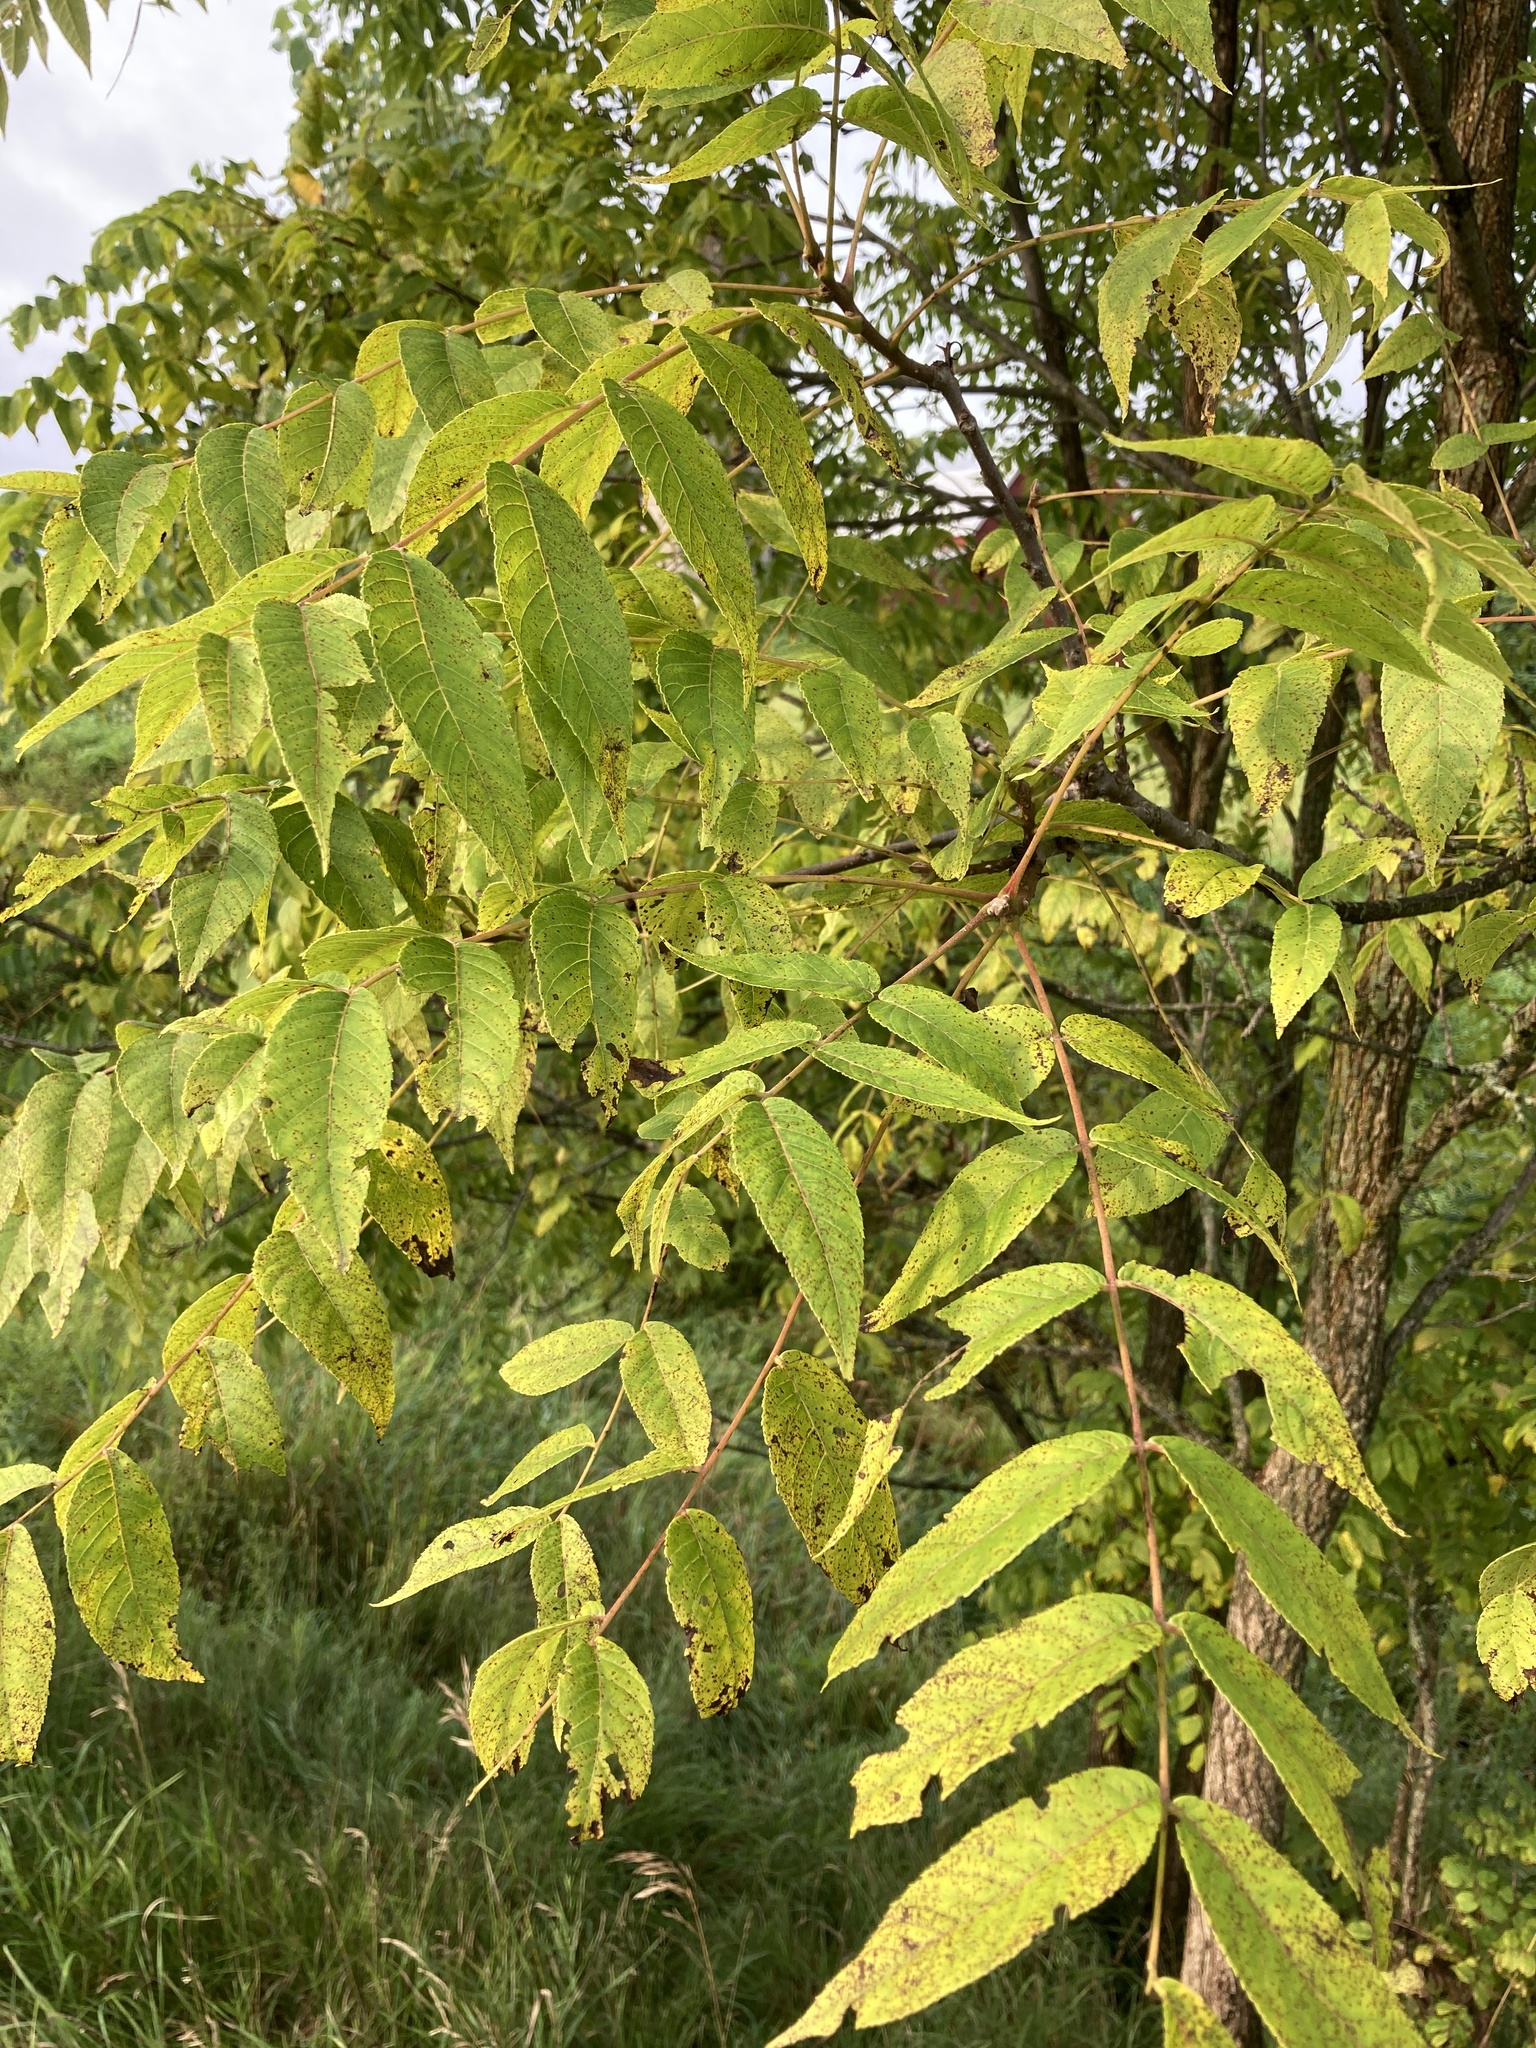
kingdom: Plantae
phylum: Tracheophyta
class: Magnoliopsida
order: Fagales
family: Juglandaceae
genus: Juglans
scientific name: Juglans nigra
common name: Black walnut
